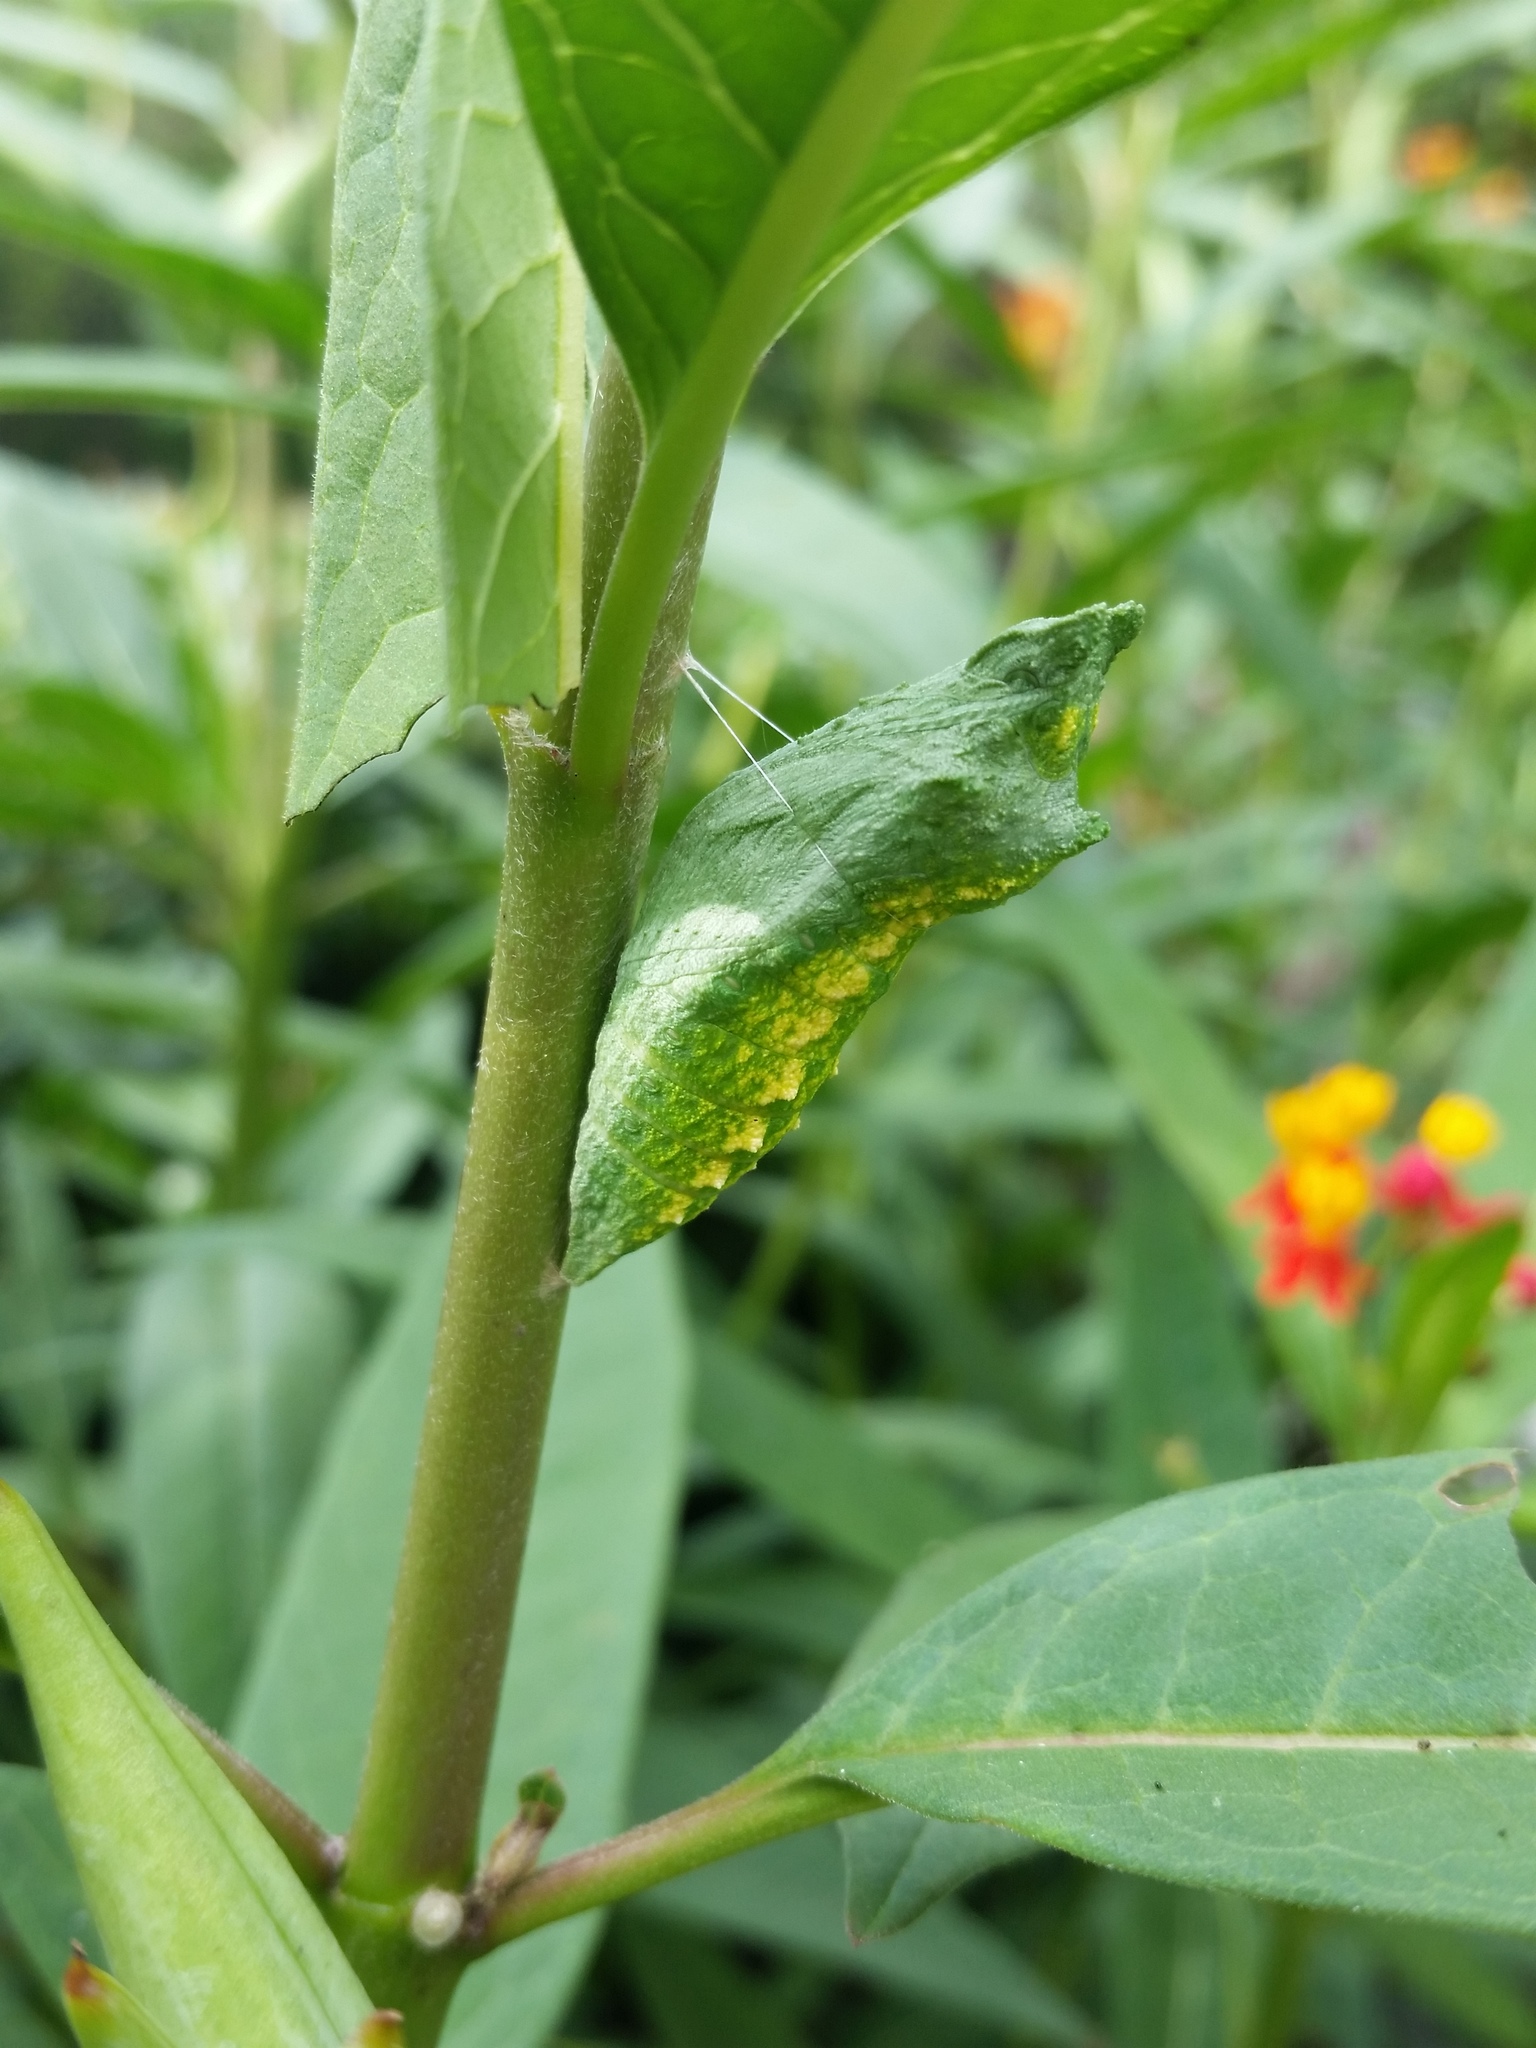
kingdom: Animalia
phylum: Arthropoda
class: Insecta
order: Lepidoptera
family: Papilionidae
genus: Papilio
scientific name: Papilio polyxenes
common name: Black swallowtail
